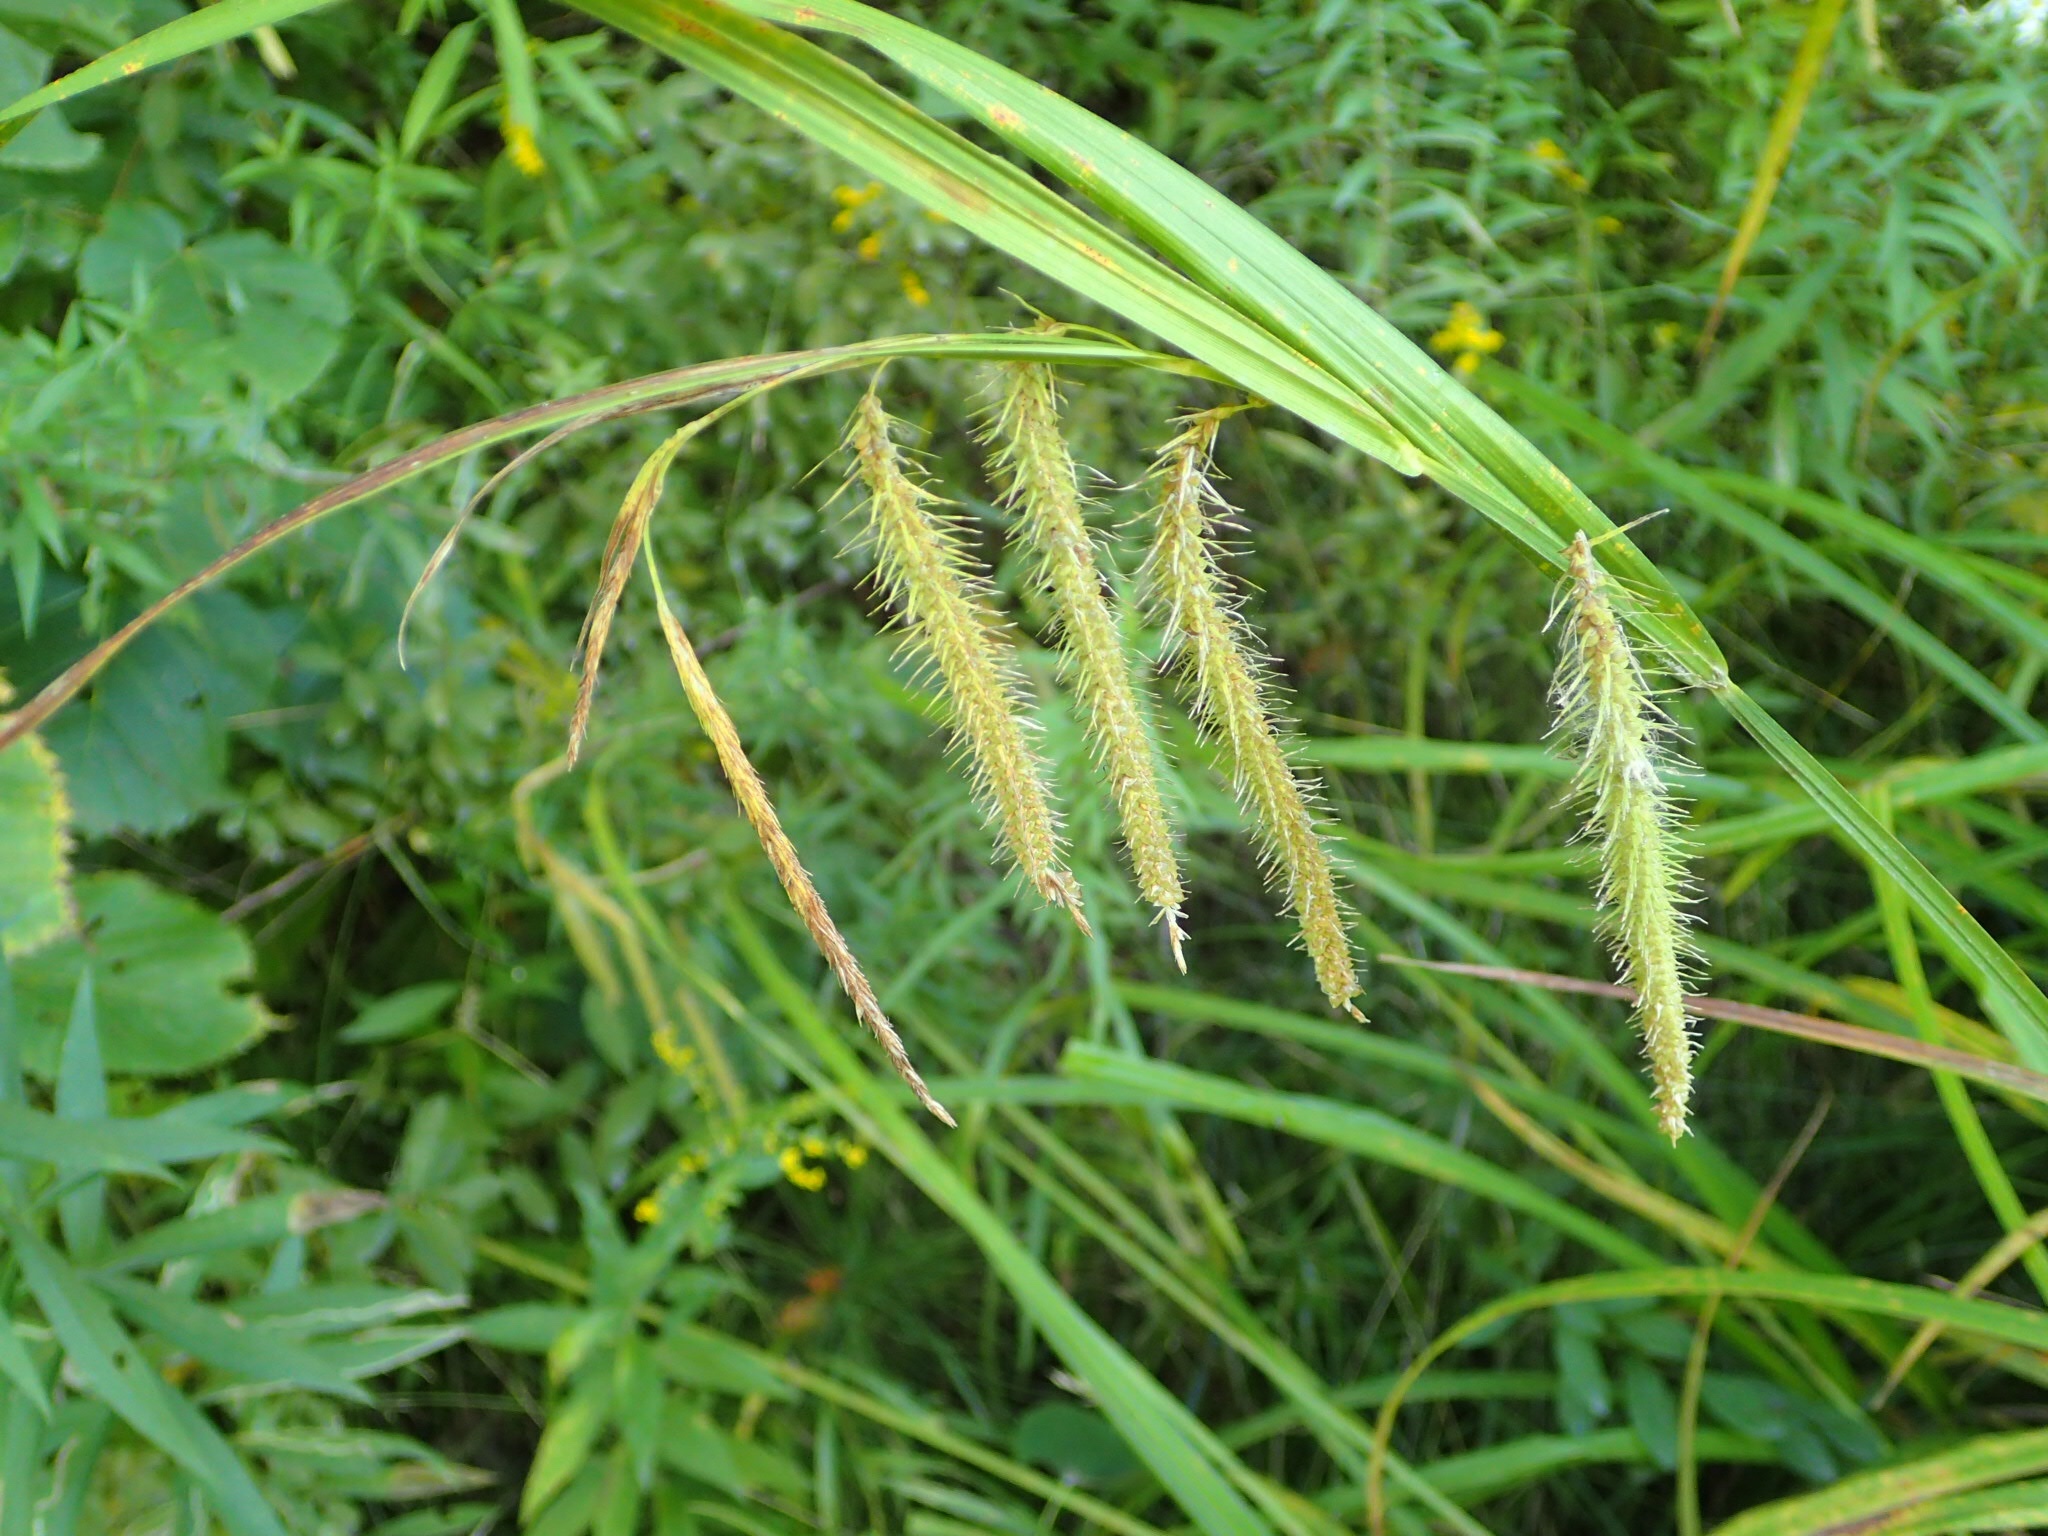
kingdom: Plantae
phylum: Tracheophyta
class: Liliopsida
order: Poales
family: Cyperaceae
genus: Carex
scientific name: Carex crinita
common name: Fringed sedge
